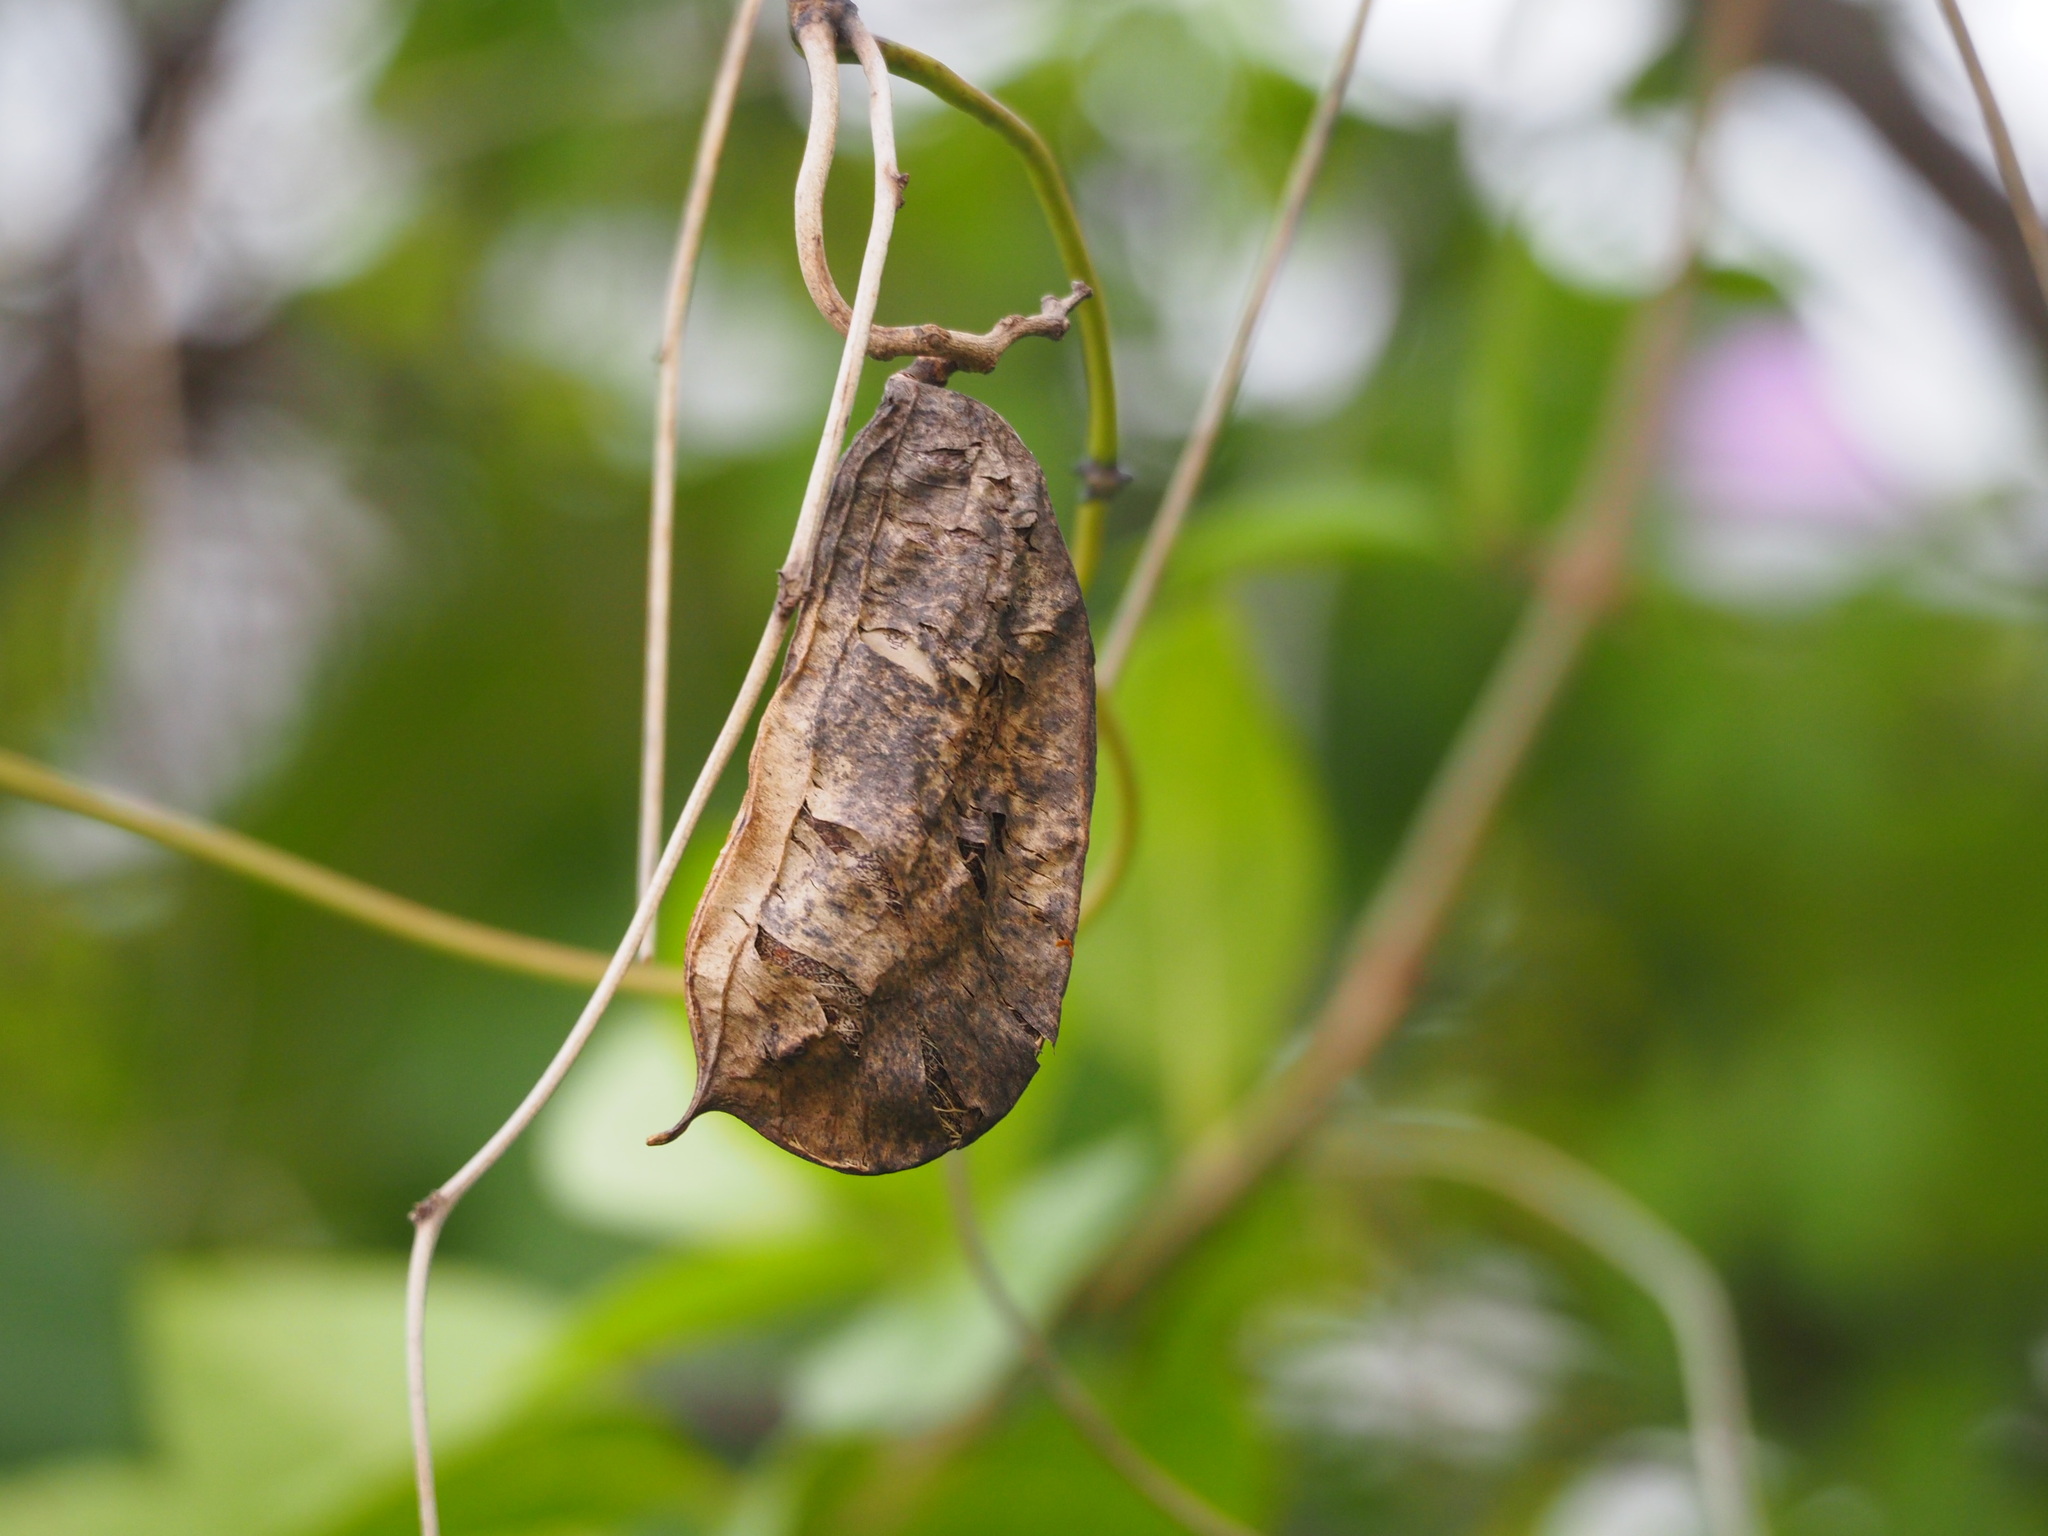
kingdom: Plantae
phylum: Tracheophyta
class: Magnoliopsida
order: Fabales
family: Fabaceae
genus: Canavalia
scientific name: Canavalia lineata
